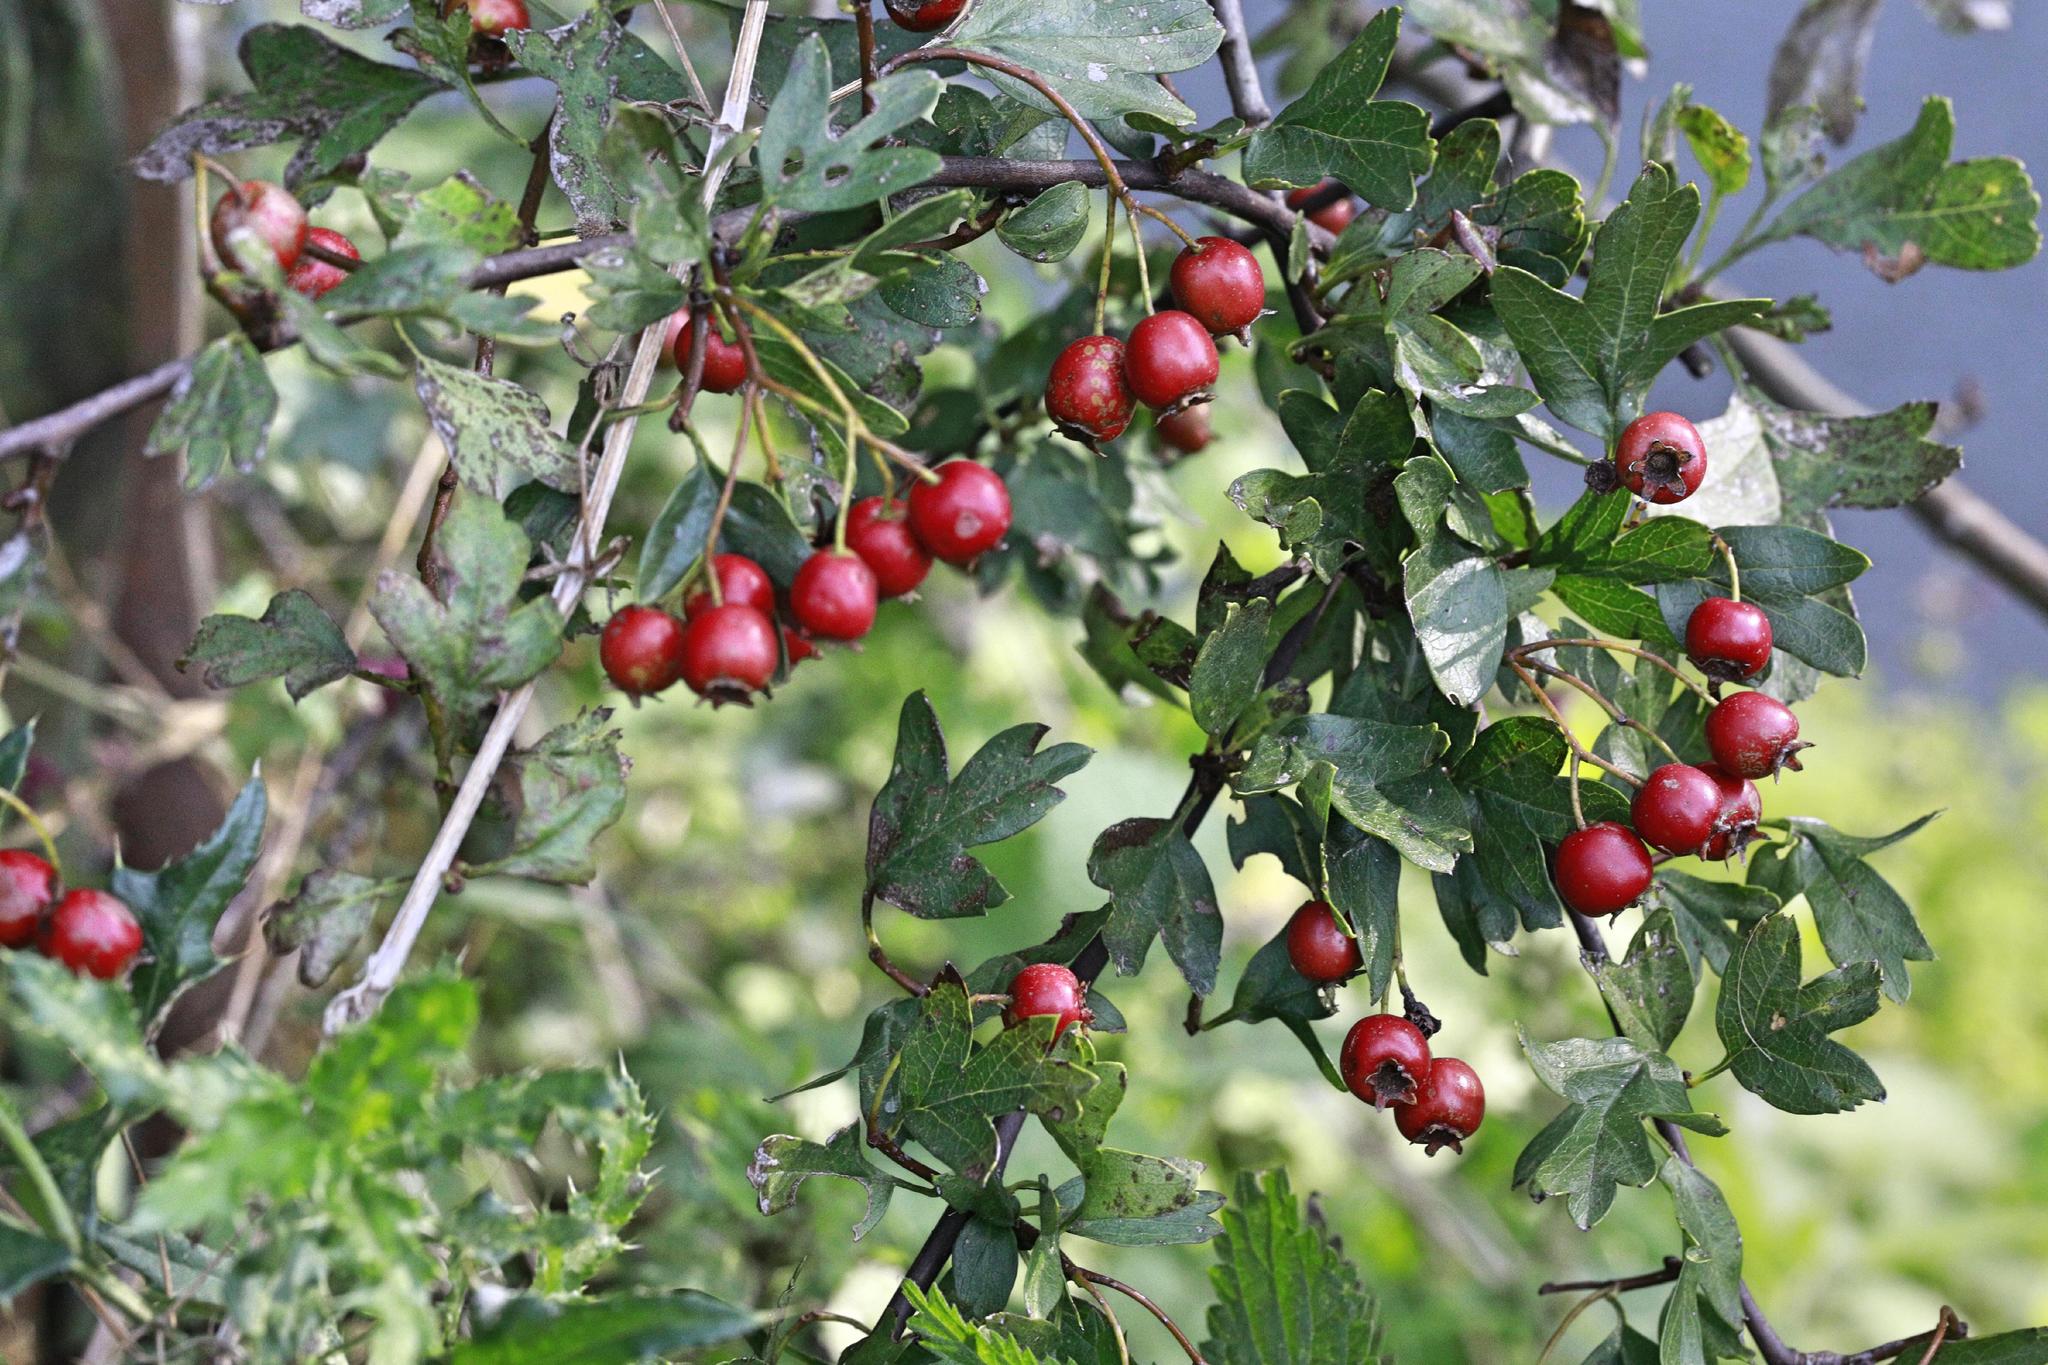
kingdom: Plantae
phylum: Tracheophyta
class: Magnoliopsida
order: Rosales
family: Rosaceae
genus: Crataegus
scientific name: Crataegus monogyna
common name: Hawthorn
